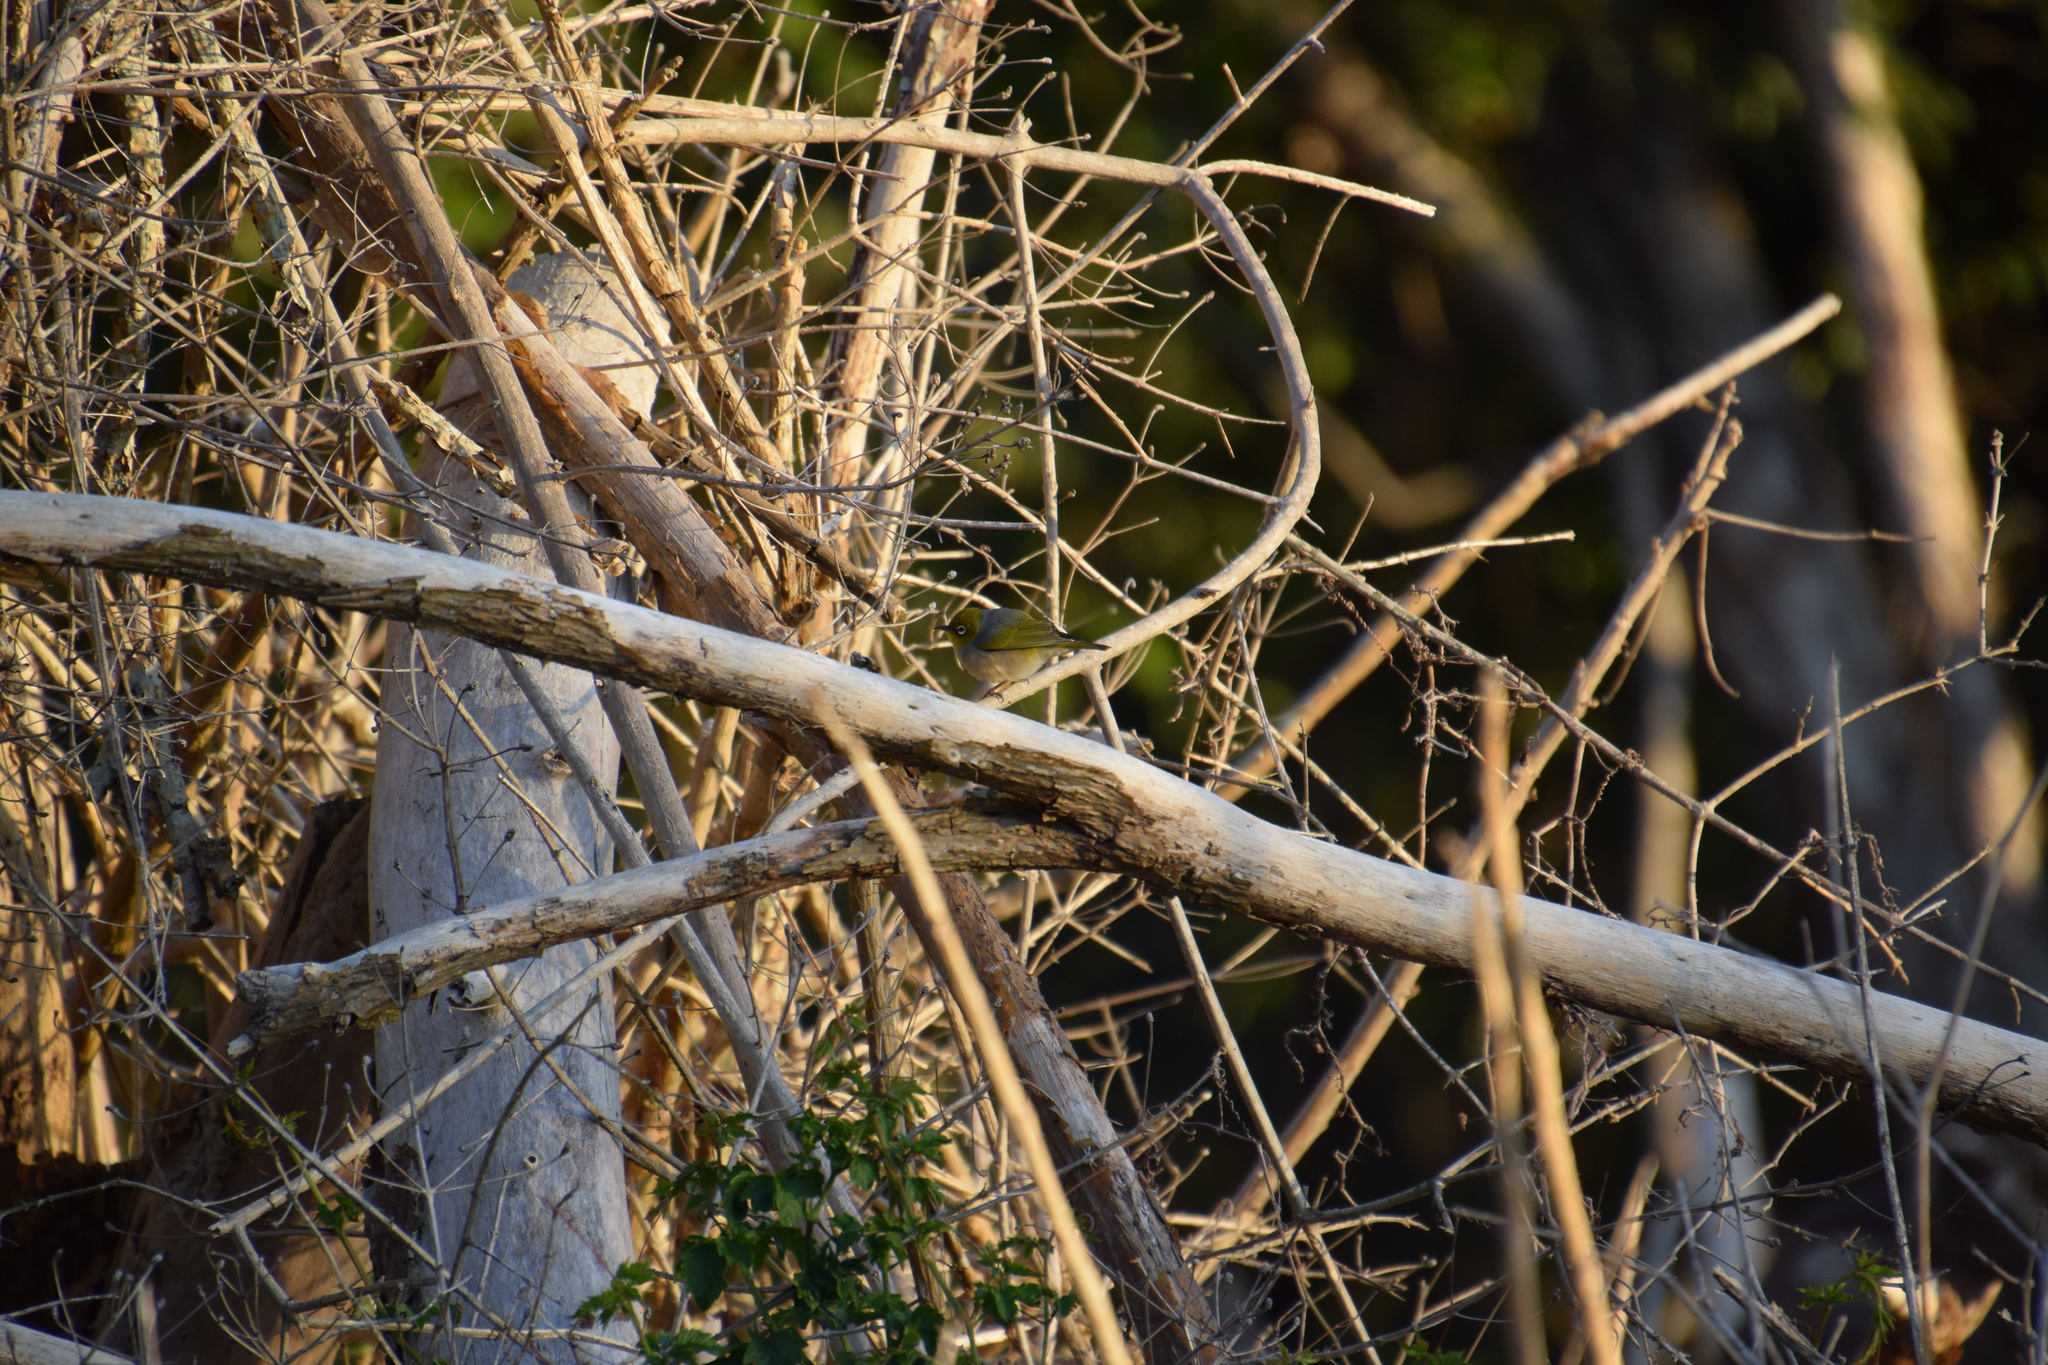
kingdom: Animalia
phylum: Chordata
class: Aves
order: Passeriformes
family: Zosteropidae
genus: Zosterops
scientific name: Zosterops lateralis
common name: Silvereye
